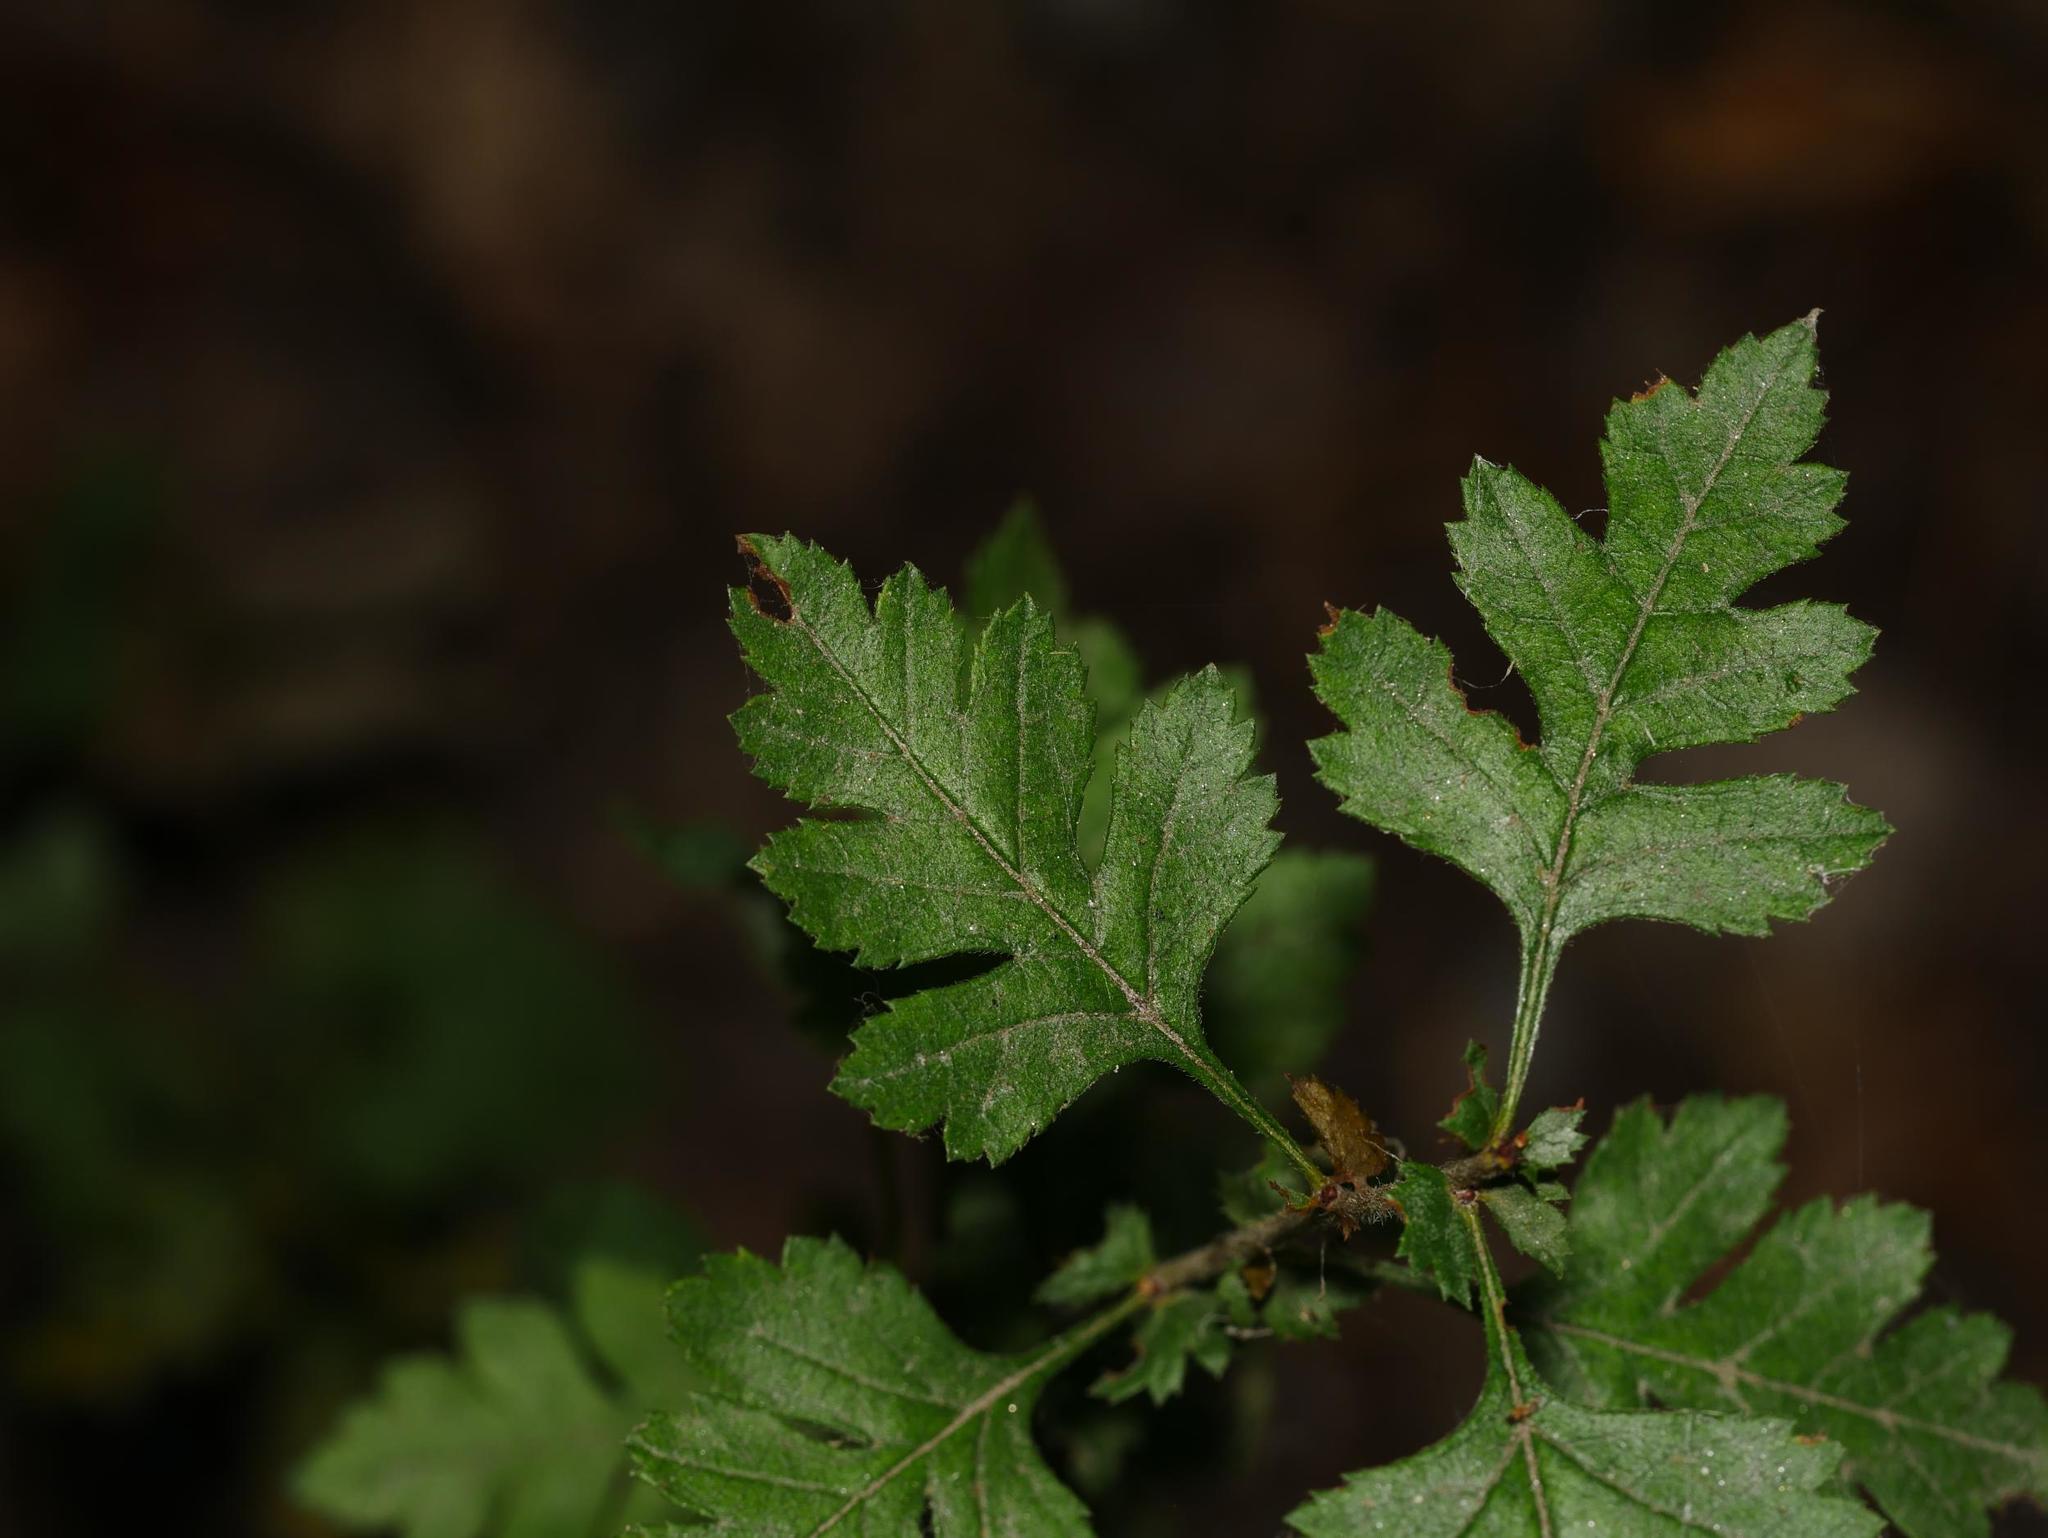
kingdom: Plantae
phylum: Tracheophyta
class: Magnoliopsida
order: Rosales
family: Rosaceae
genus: Crataegus
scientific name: Crataegus monogyna
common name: Hawthorn
